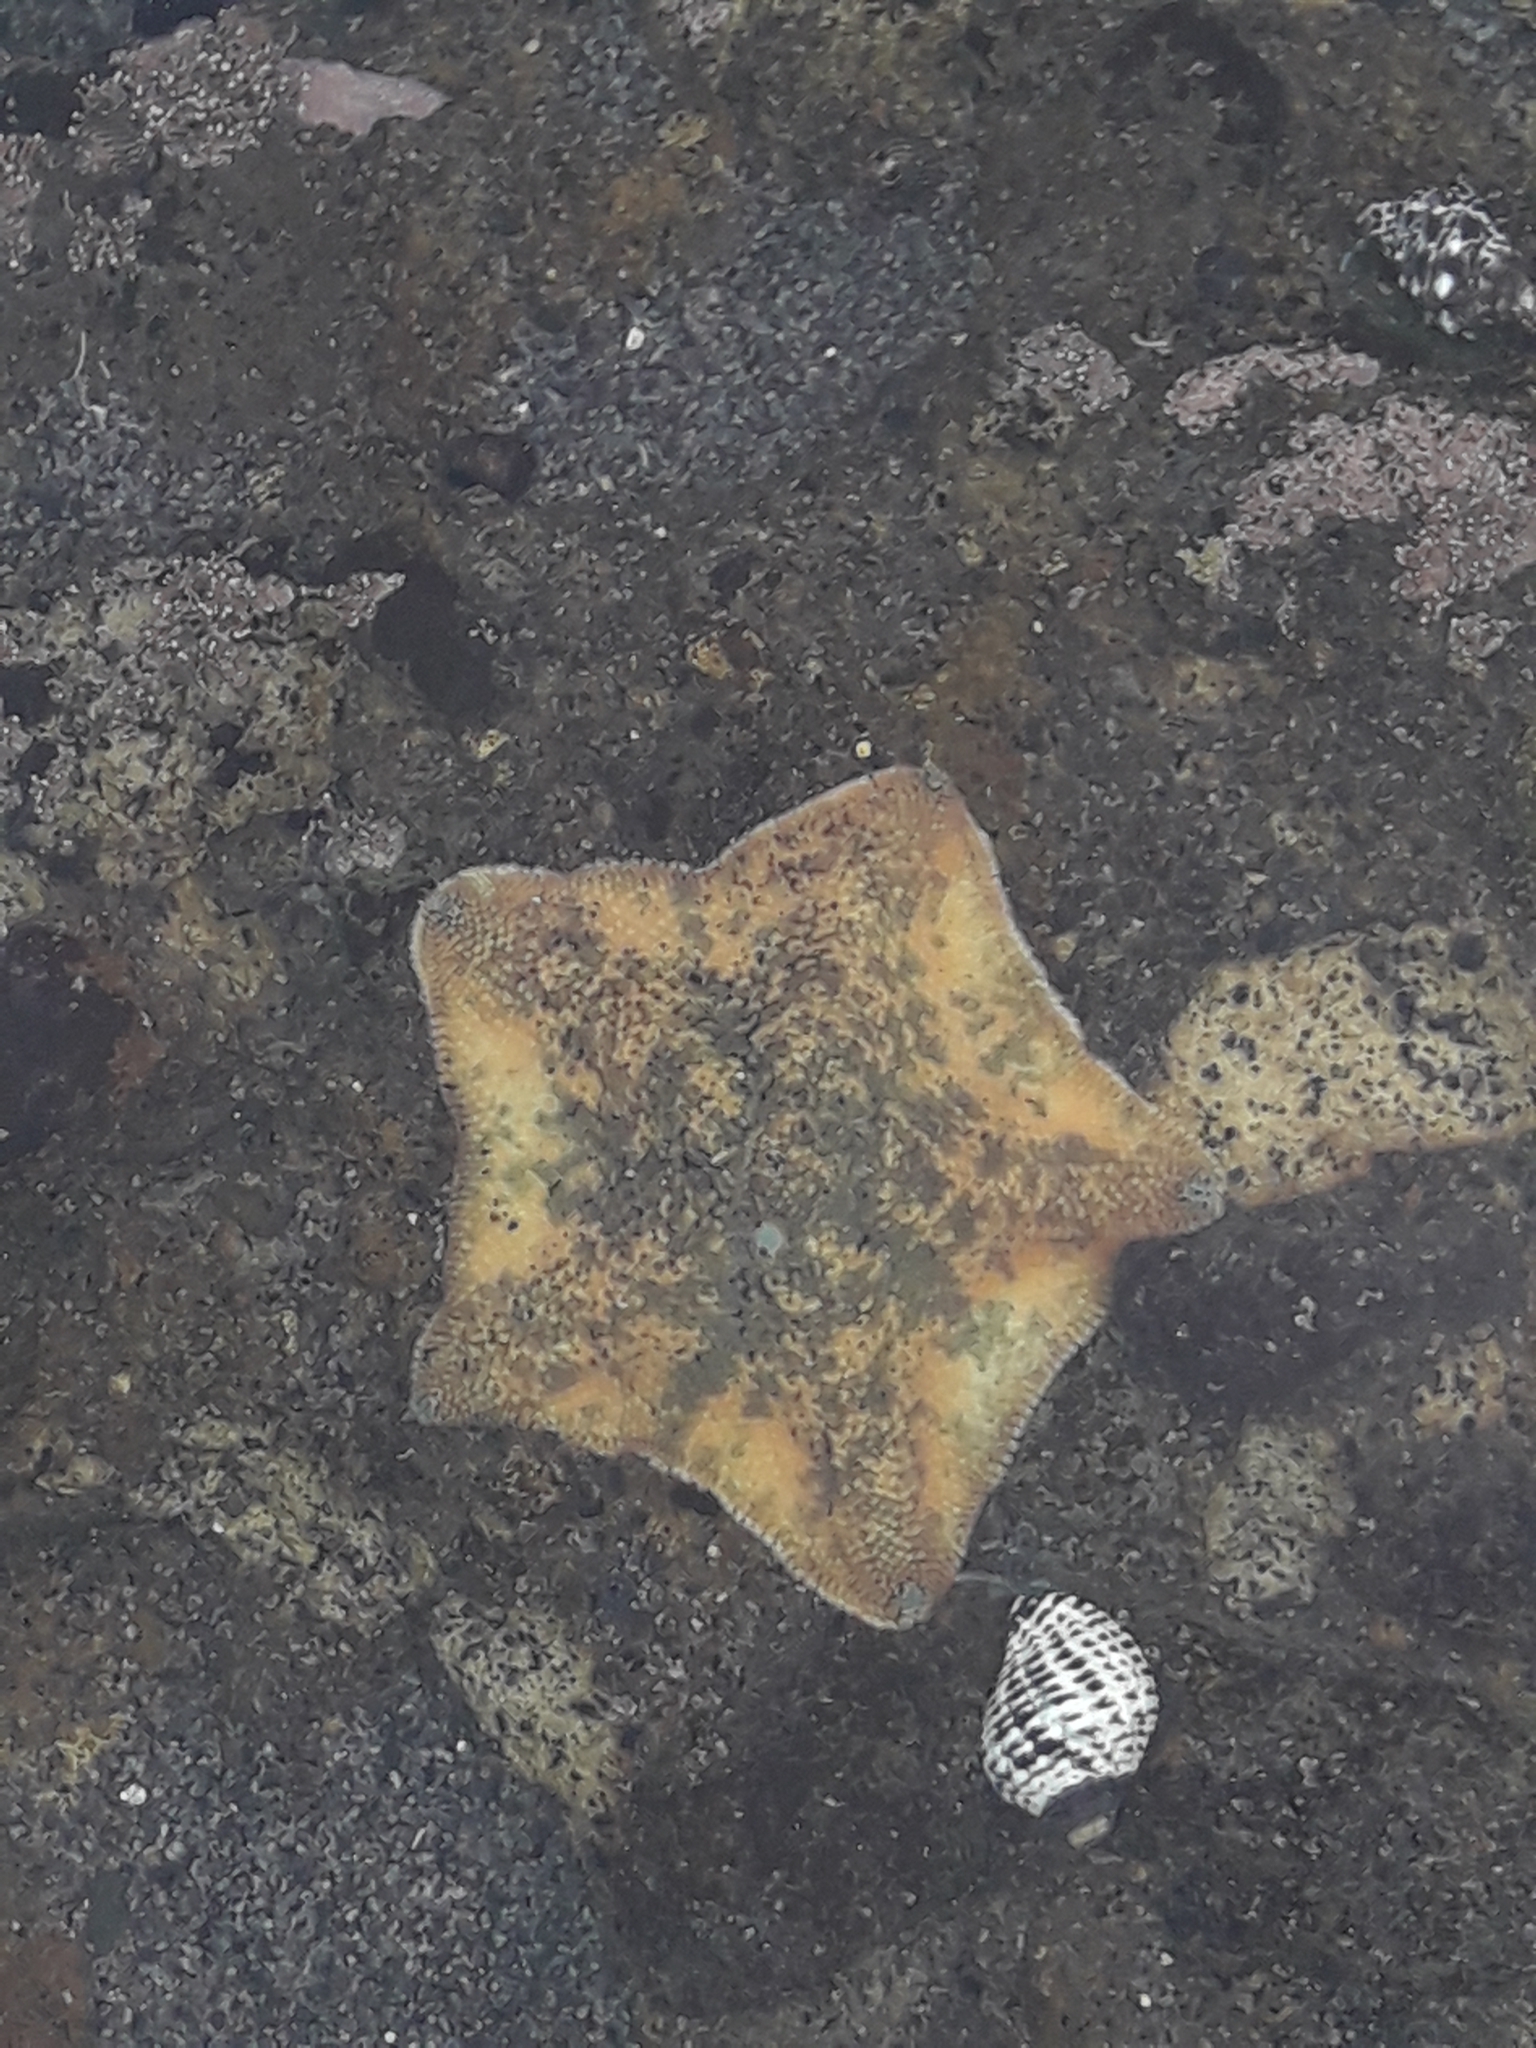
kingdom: Animalia
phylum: Echinodermata
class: Asteroidea
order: Valvatida
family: Asterinidae
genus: Patiriella
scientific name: Patiriella regularis
